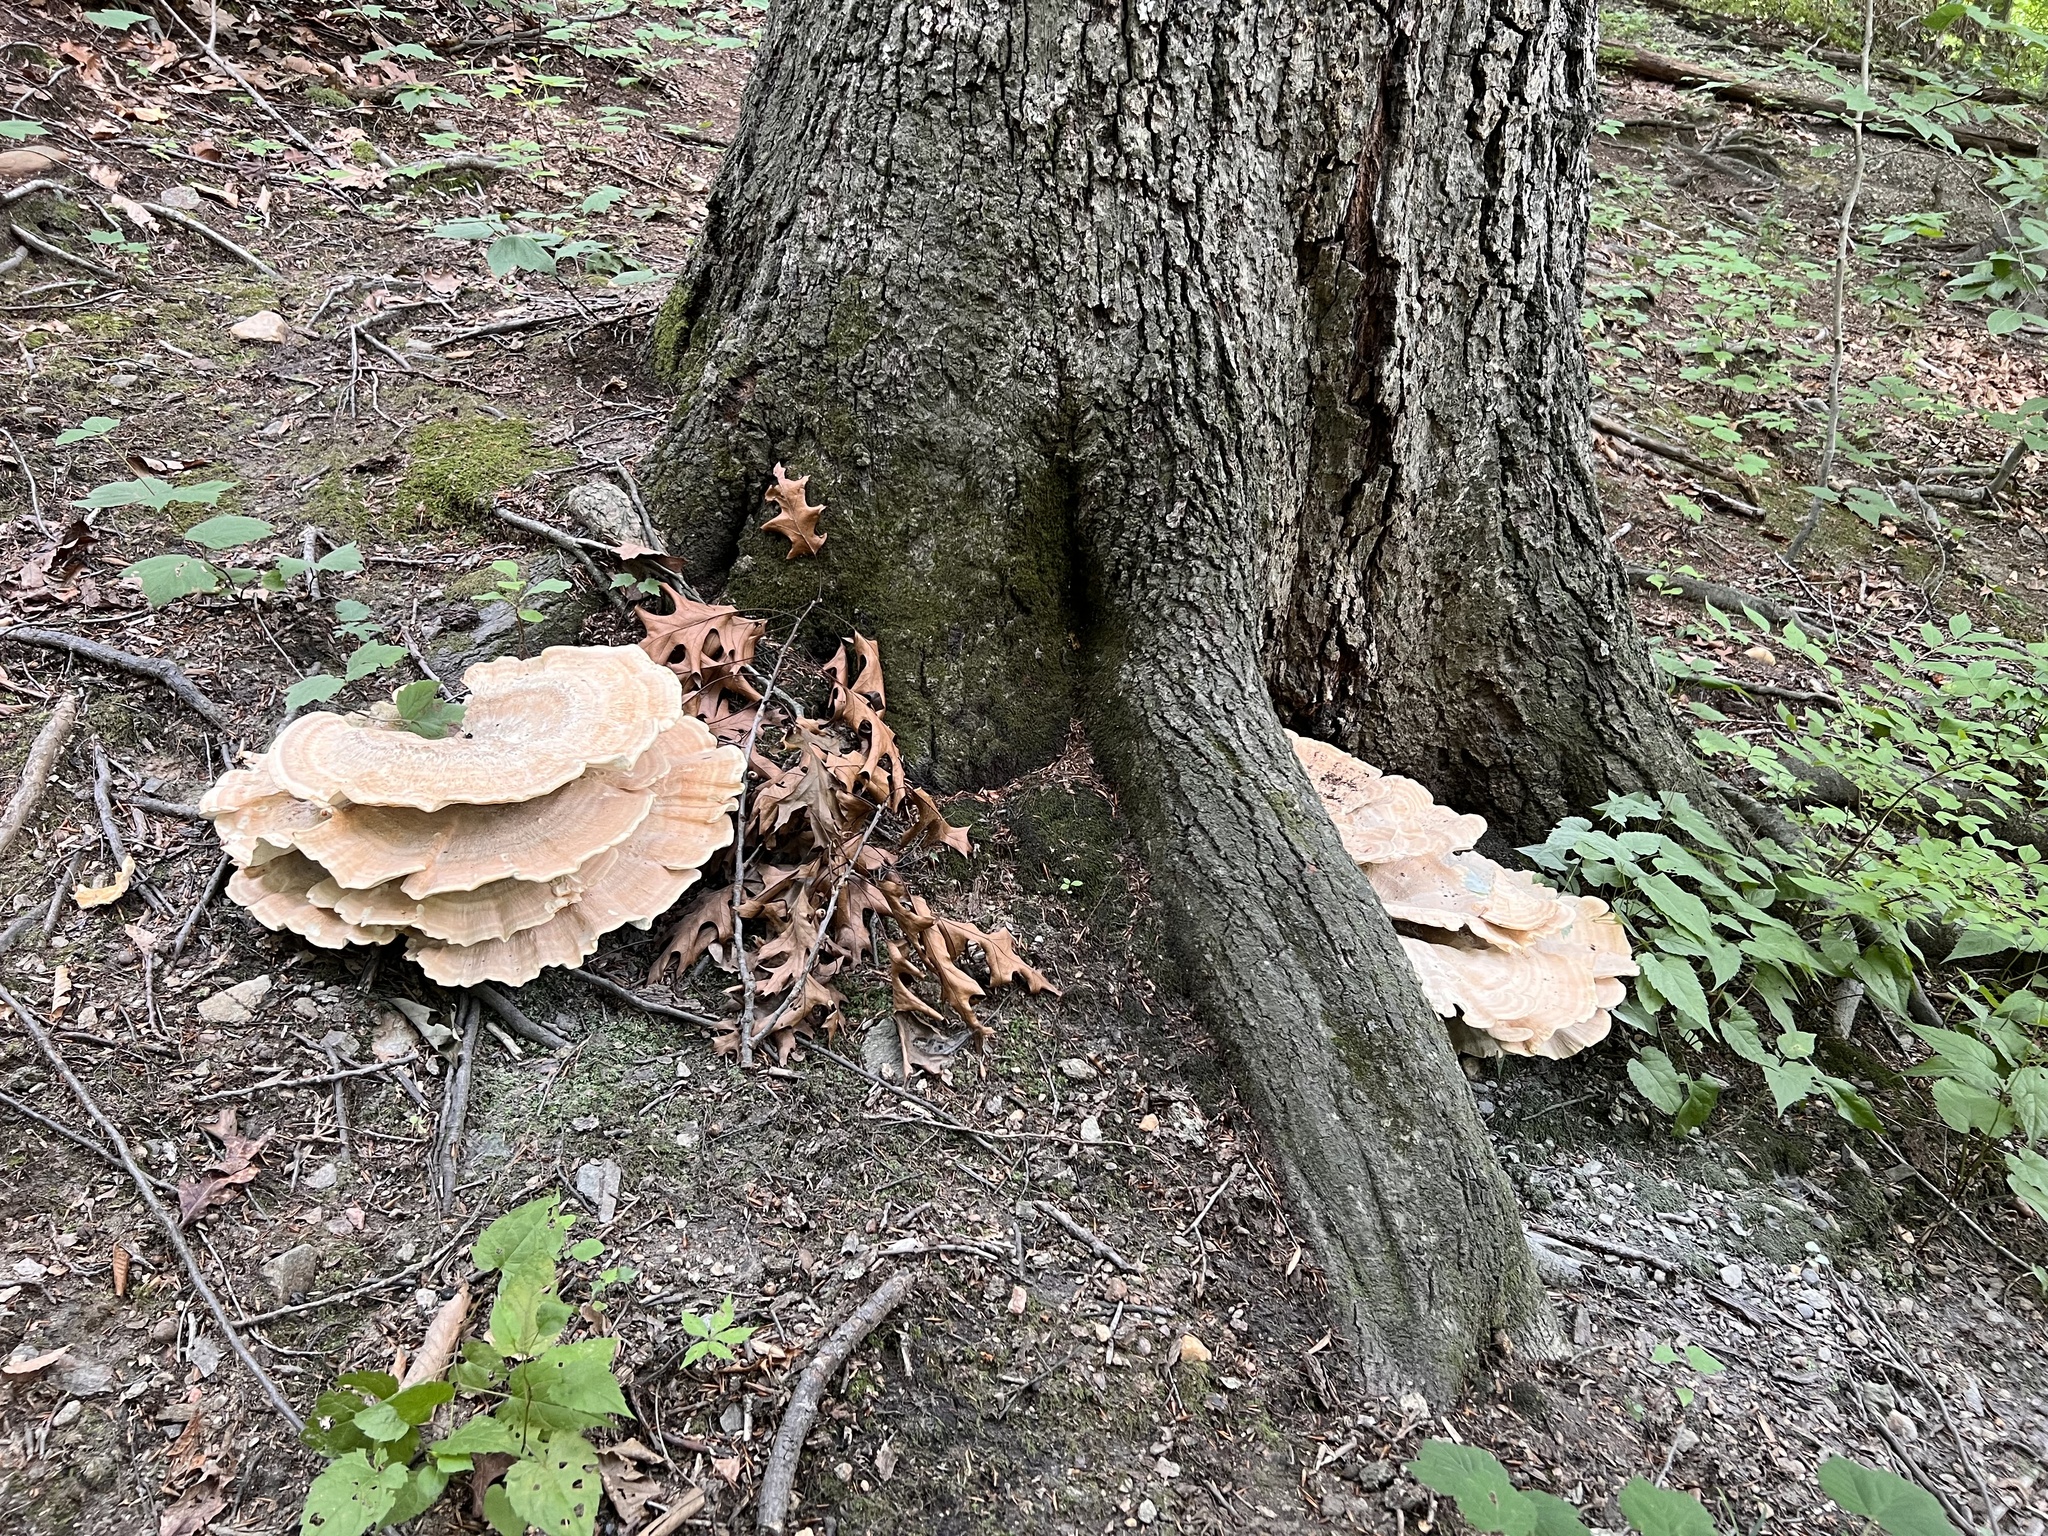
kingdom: Fungi
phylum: Basidiomycota
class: Agaricomycetes
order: Russulales
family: Bondarzewiaceae
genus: Bondarzewia
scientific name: Bondarzewia berkeleyi
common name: Berkeley's polypore
